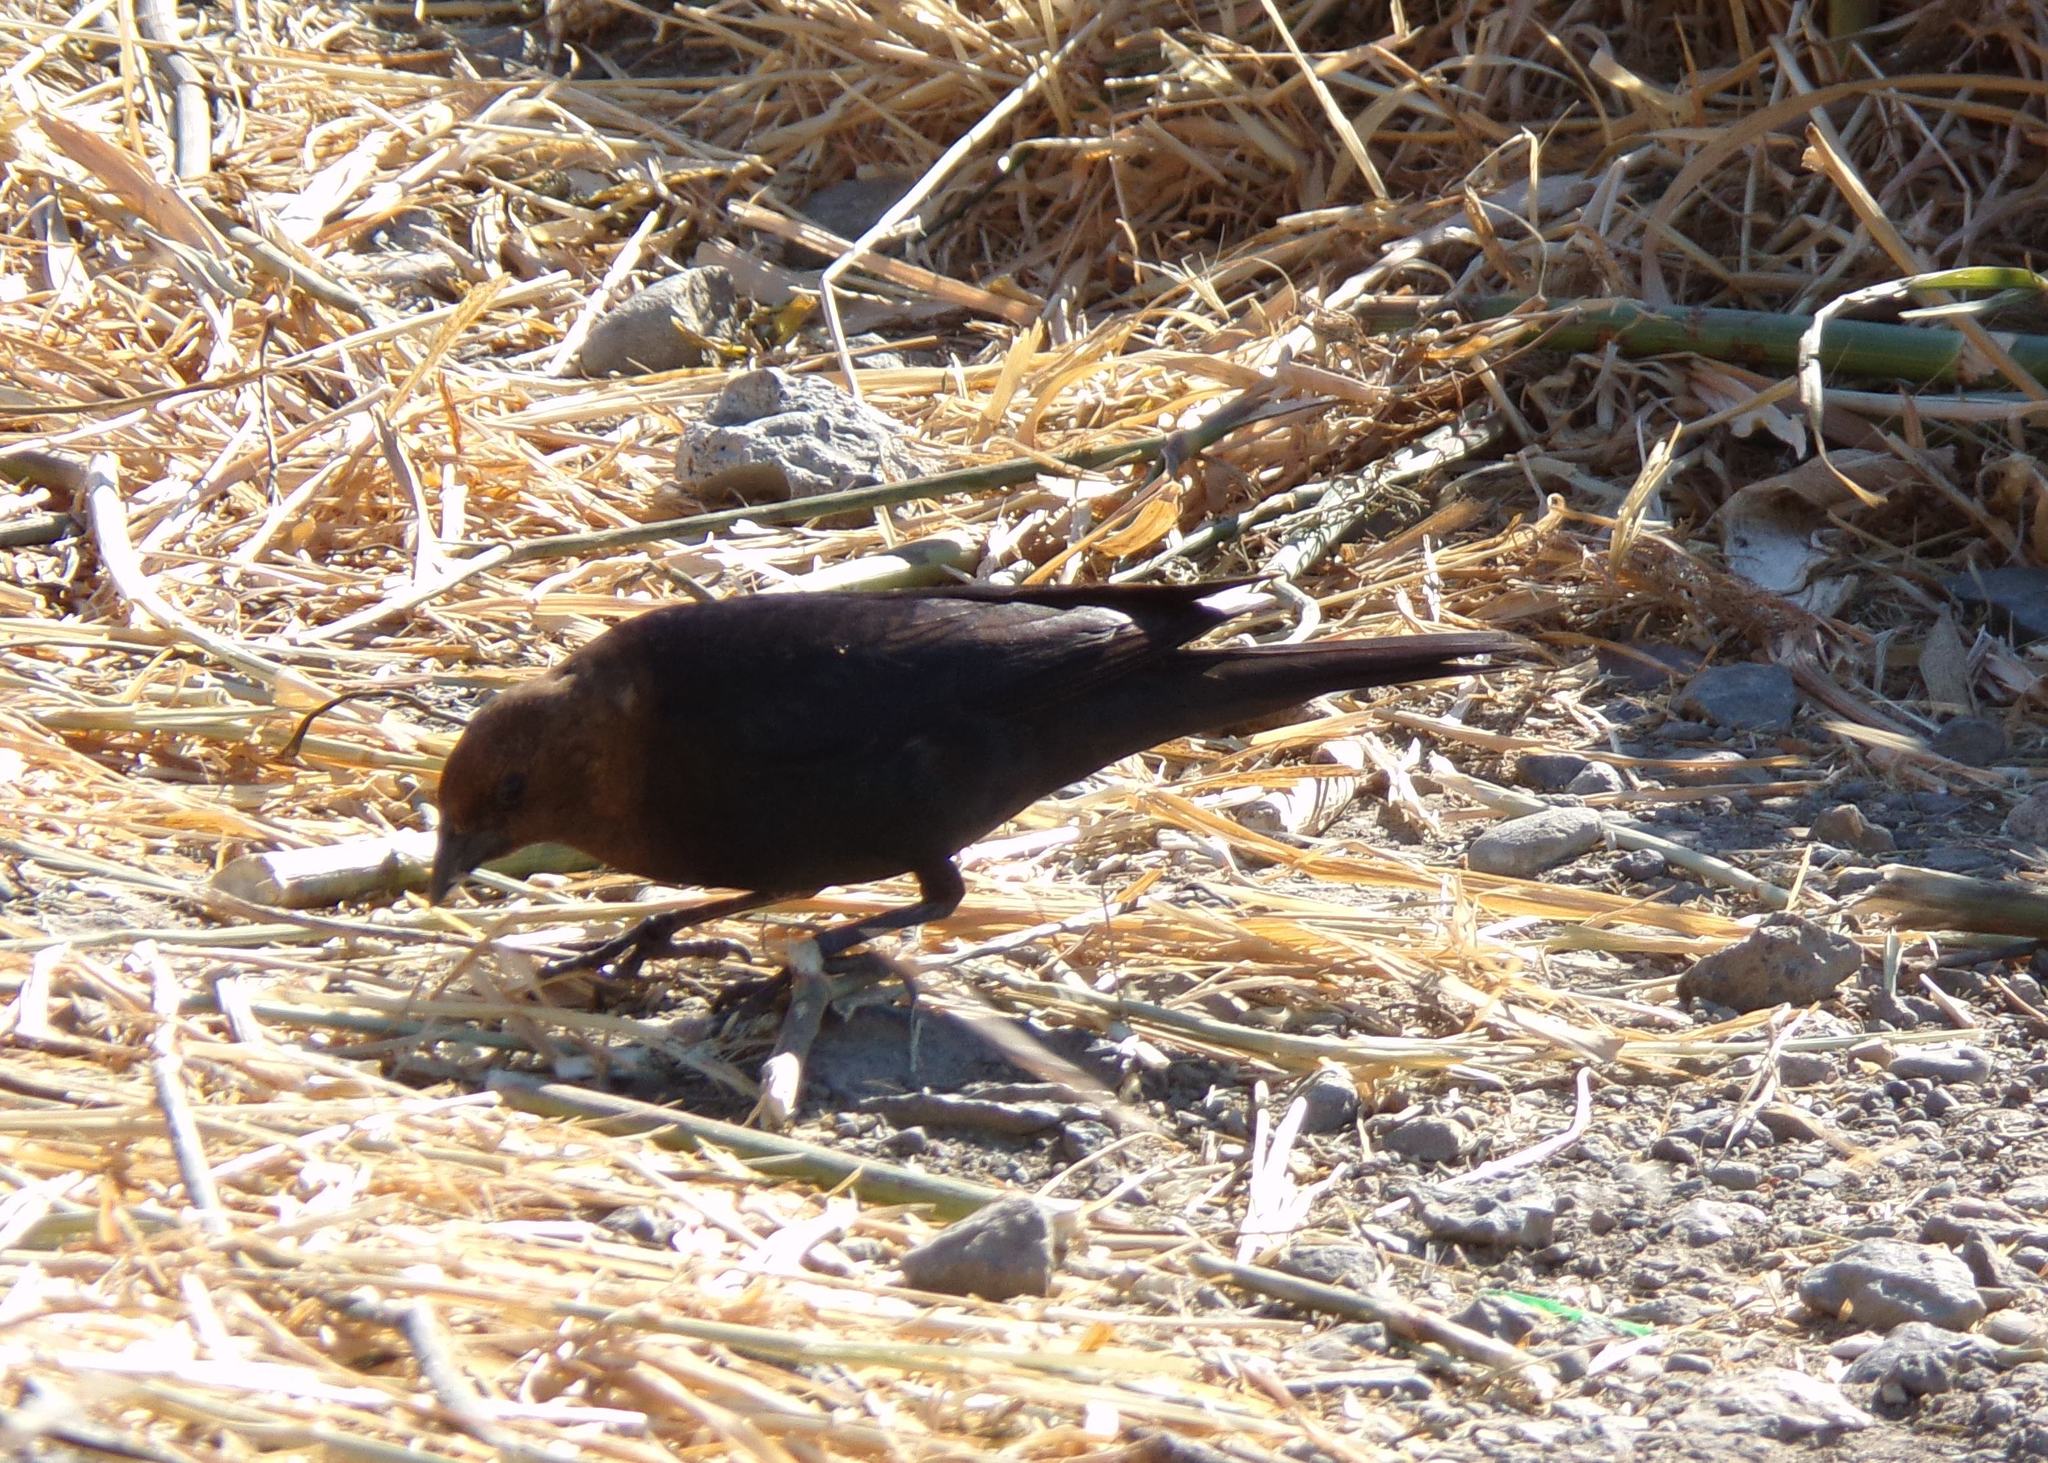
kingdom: Animalia
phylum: Chordata
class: Aves
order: Passeriformes
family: Icteridae
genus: Molothrus
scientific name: Molothrus ater
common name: Brown-headed cowbird
